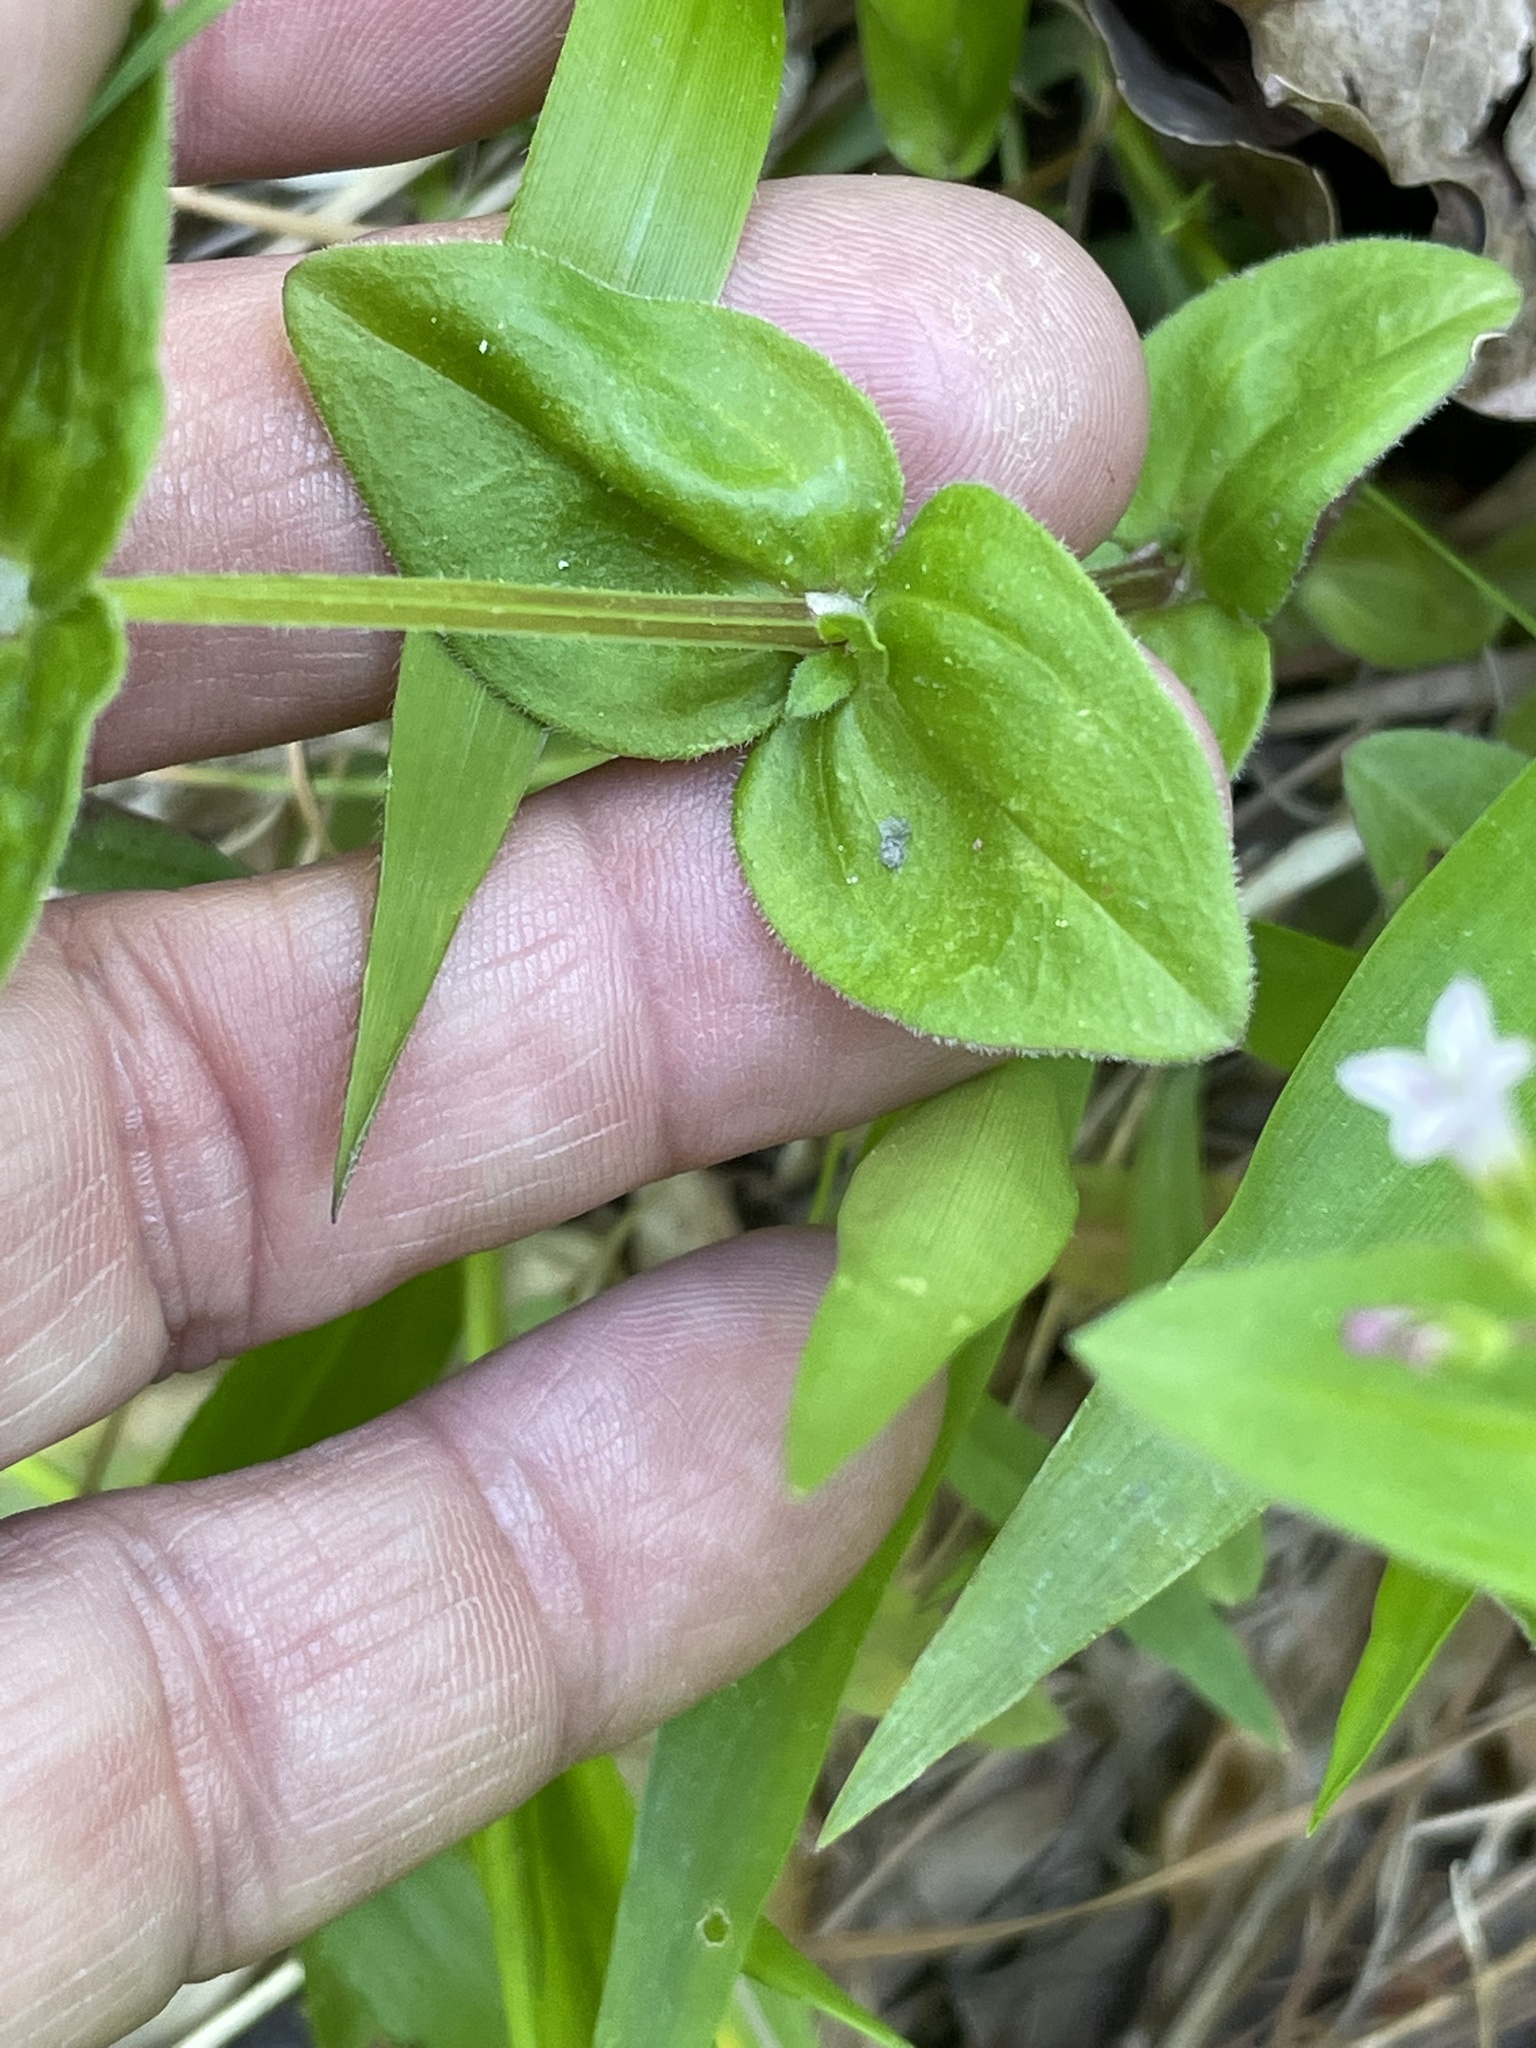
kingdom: Plantae
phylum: Tracheophyta
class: Magnoliopsida
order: Gentianales
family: Rubiaceae
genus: Houstonia
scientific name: Houstonia purpurea
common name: Summer bluet
